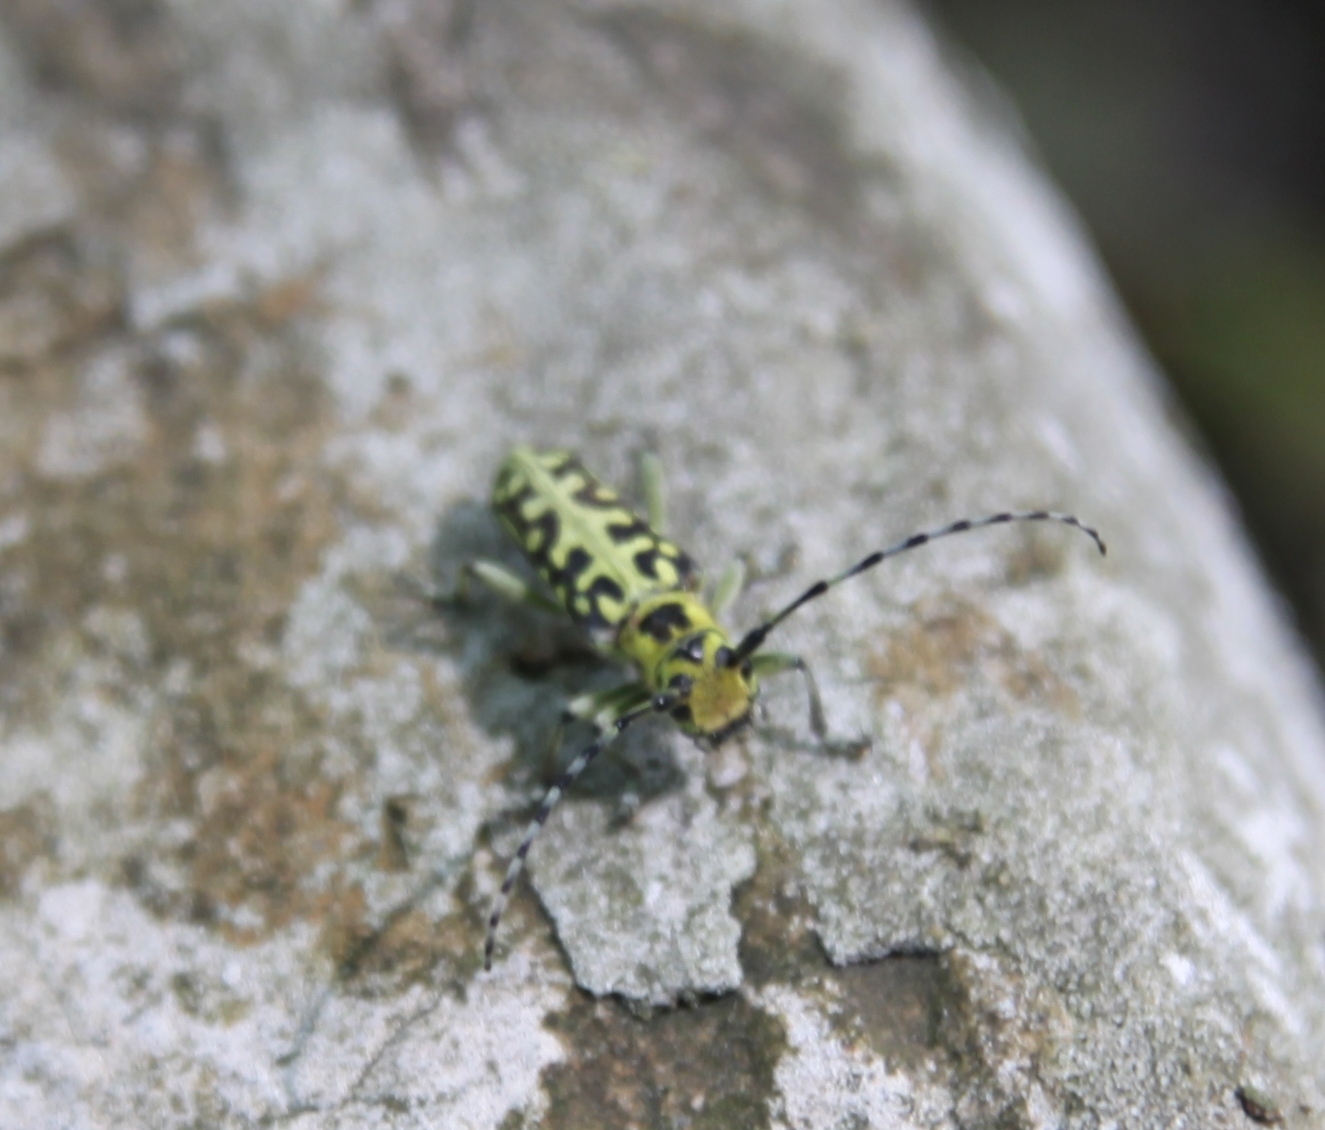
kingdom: Animalia
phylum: Arthropoda
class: Insecta
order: Coleoptera
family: Cerambycidae
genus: Saperda
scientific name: Saperda scalaris
